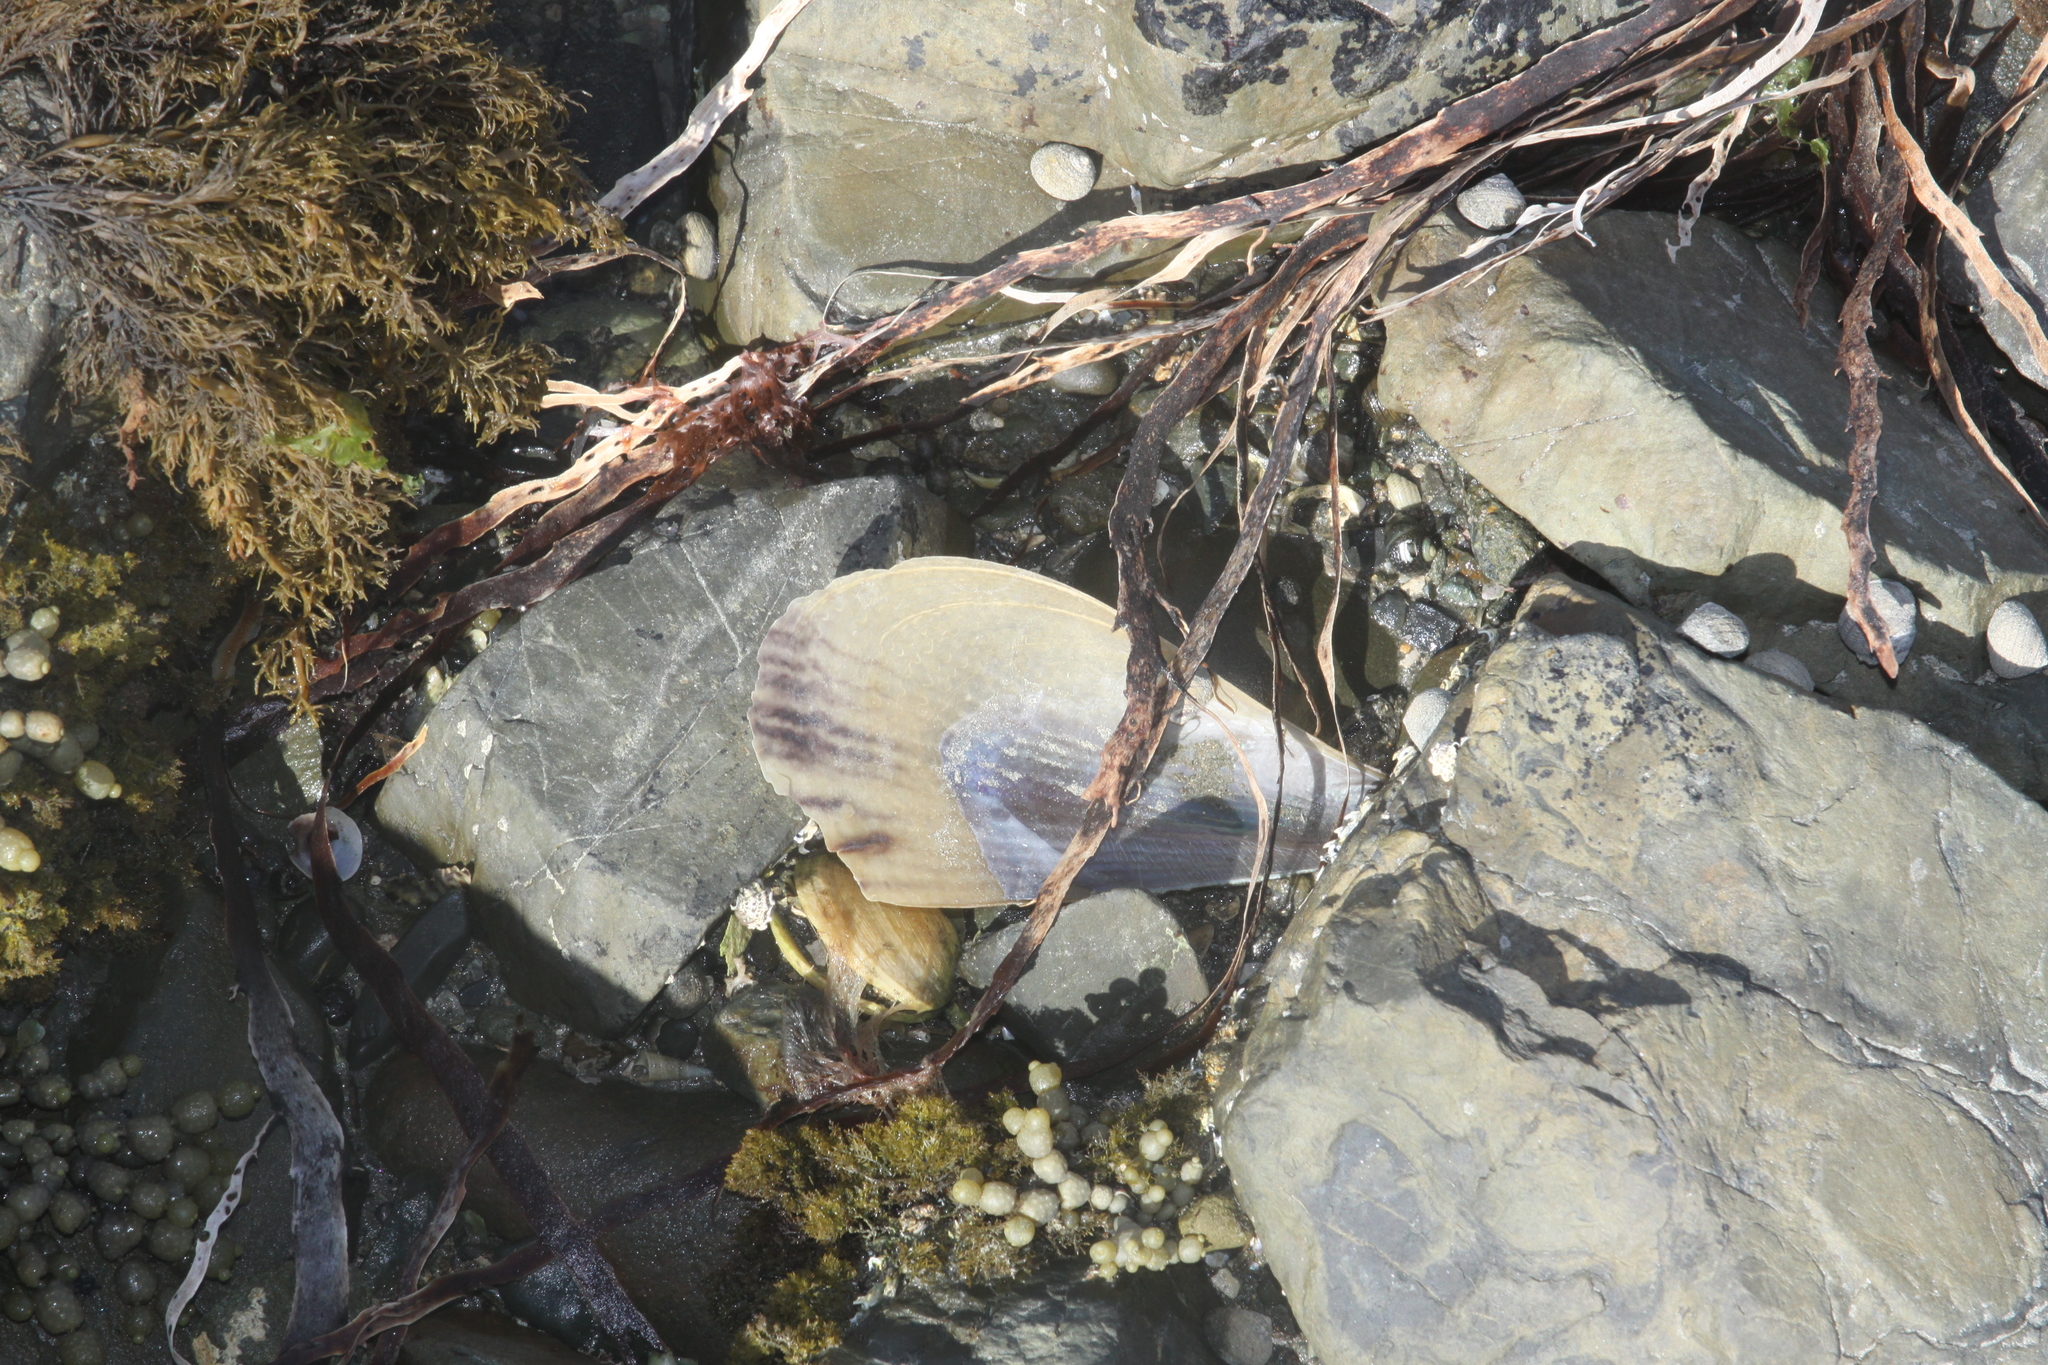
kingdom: Animalia
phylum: Mollusca
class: Bivalvia
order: Ostreida
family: Pinnidae
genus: Atrina
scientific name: Atrina zelandica
